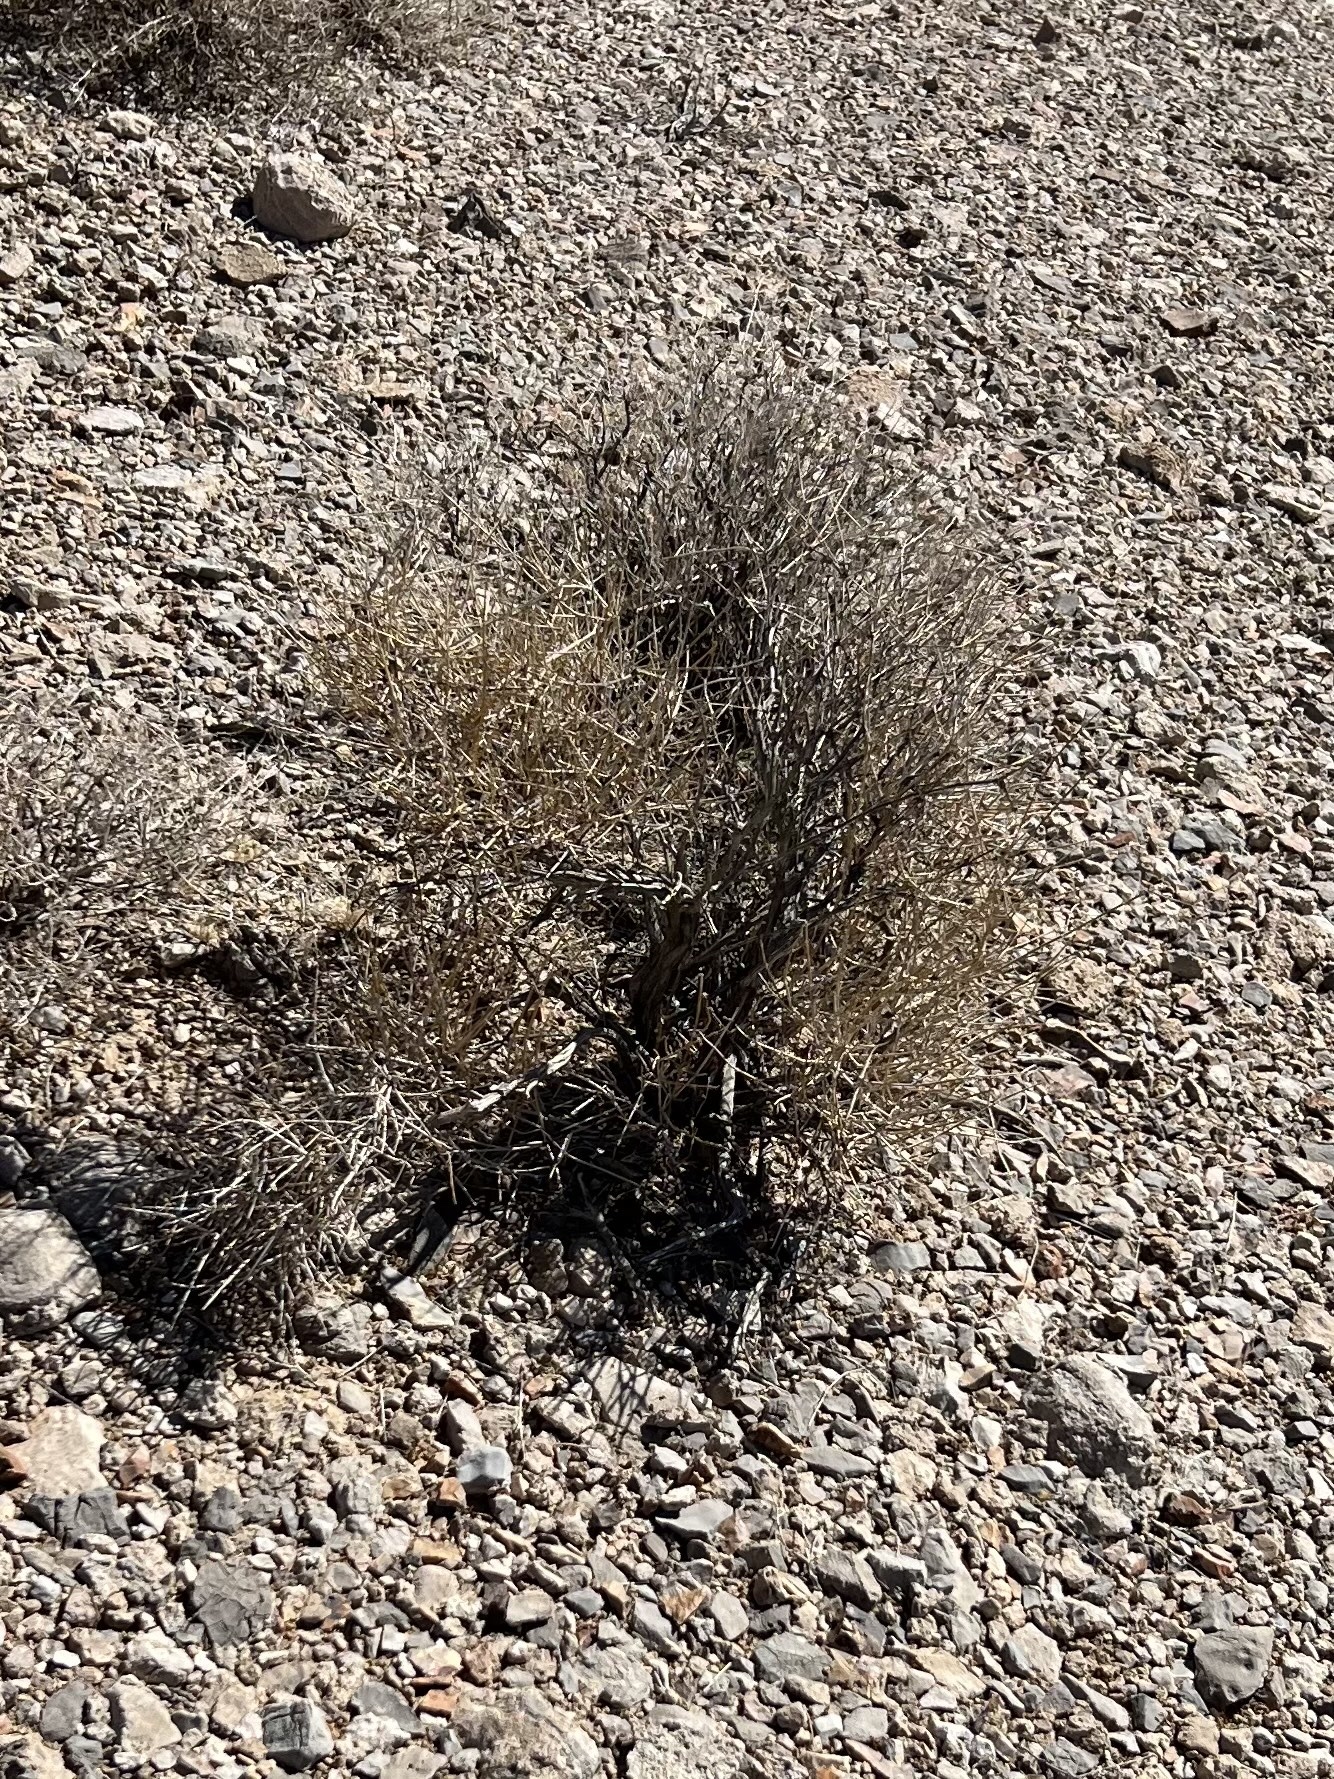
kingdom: Plantae
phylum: Tracheophyta
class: Gnetopsida
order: Ephedrales
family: Ephedraceae
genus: Ephedra
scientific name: Ephedra nevadensis
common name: Gray ephedra
